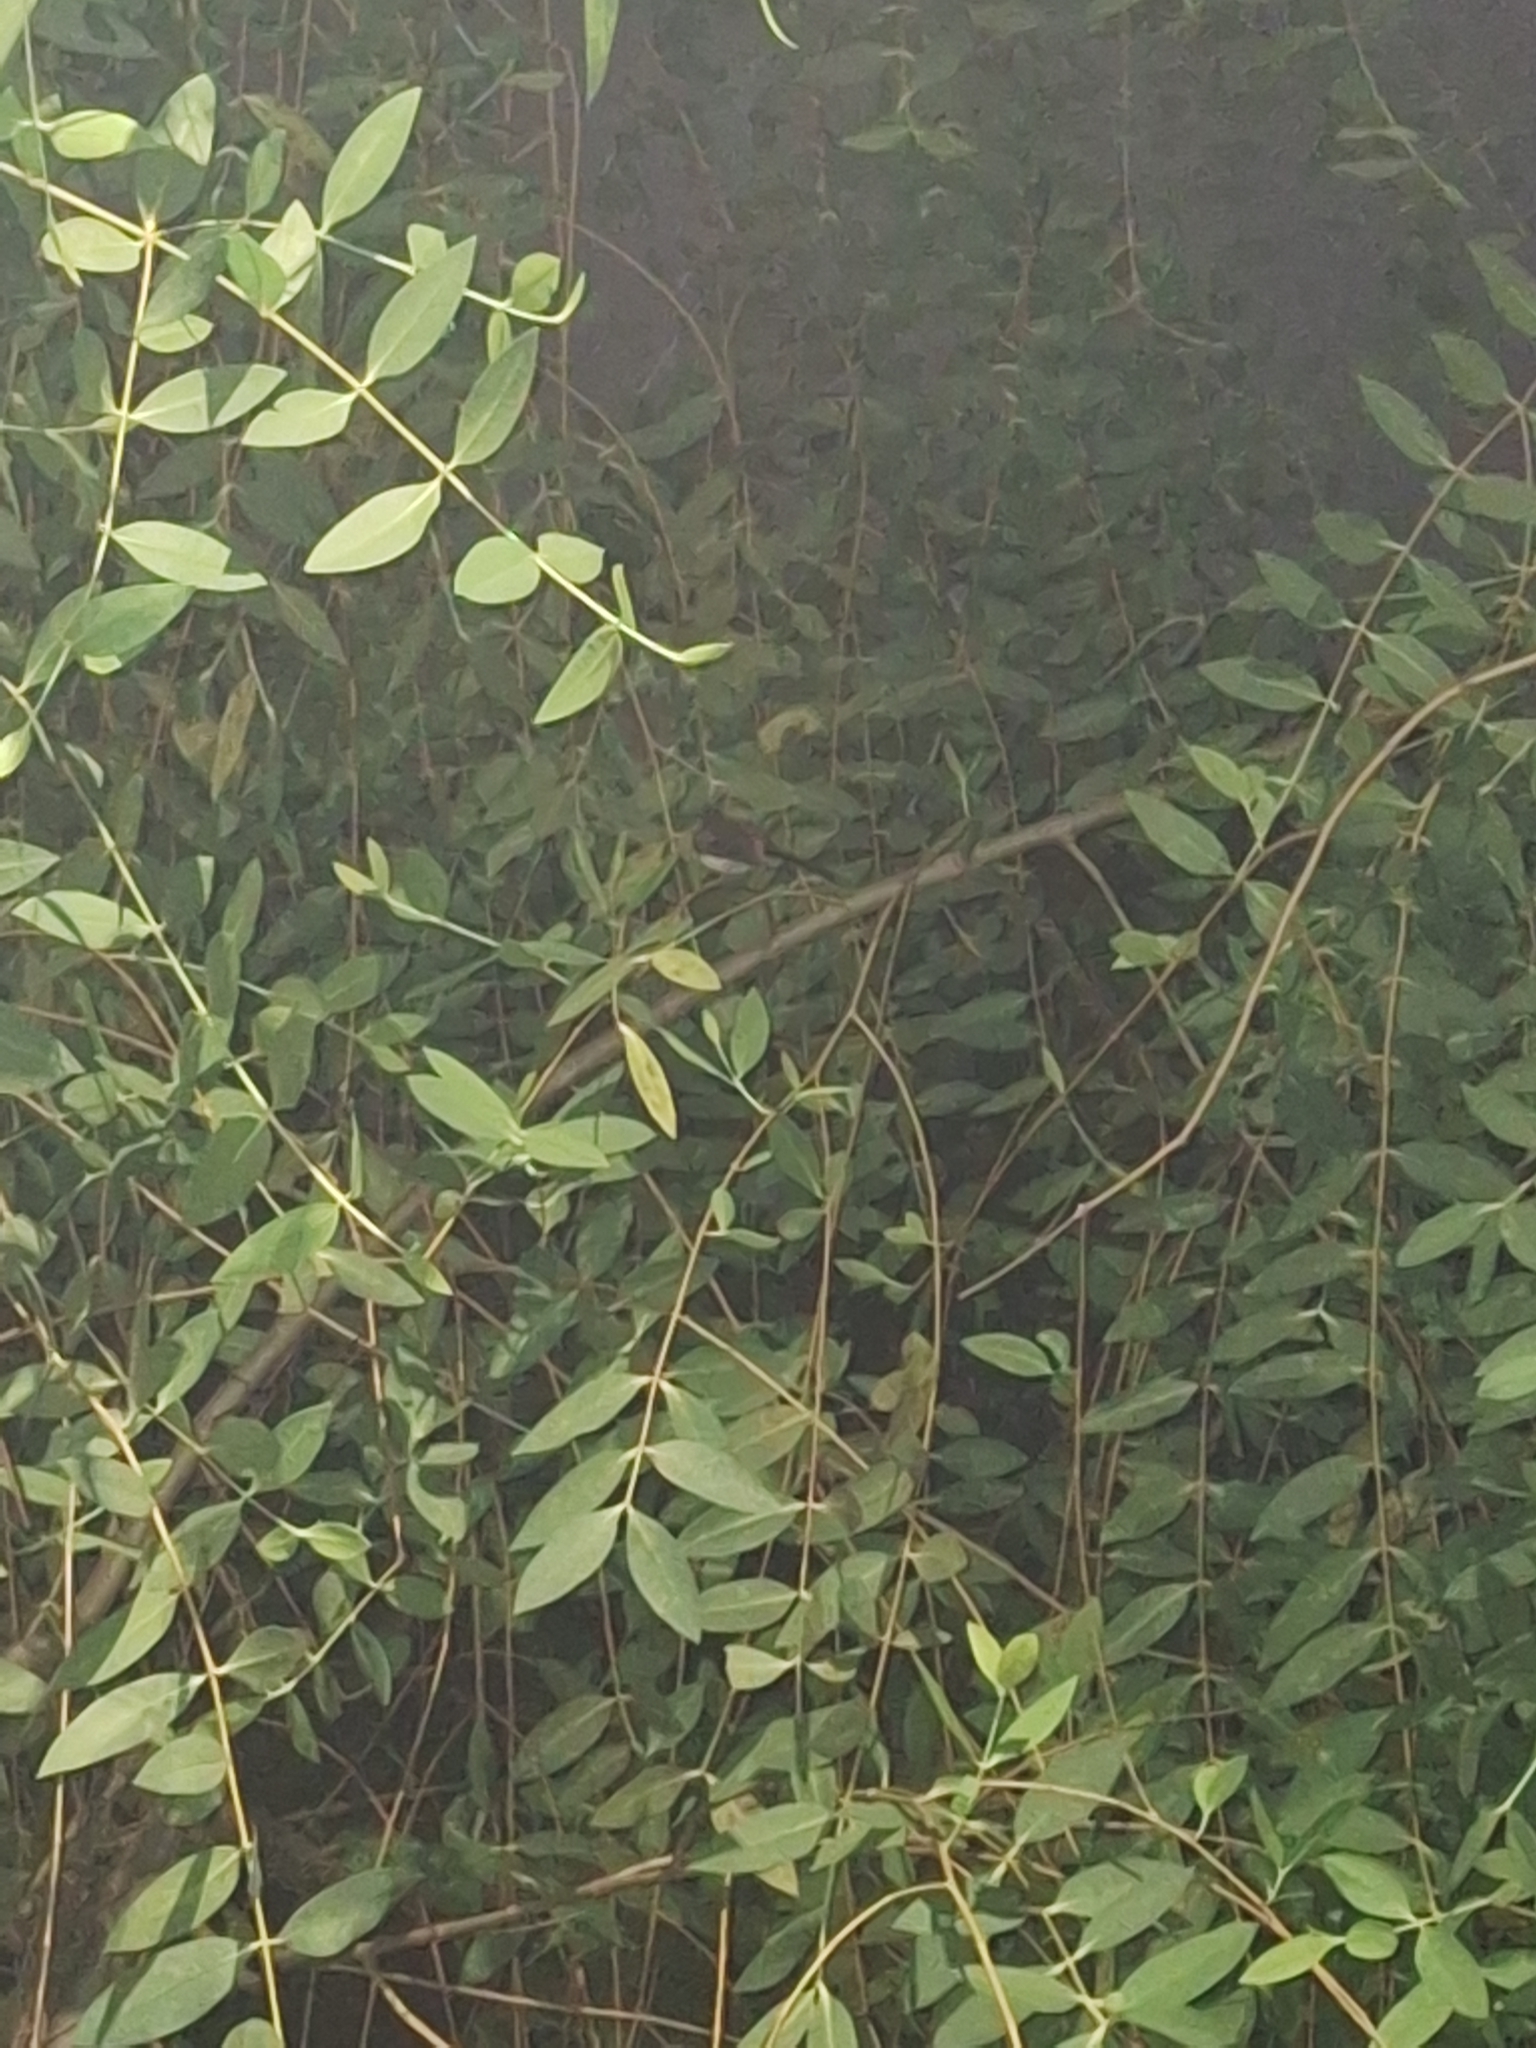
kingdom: Animalia
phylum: Chordata
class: Aves
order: Passeriformes
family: Rhipiduridae
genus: Rhipidura
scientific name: Rhipidura javanica
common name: Pied fantail
